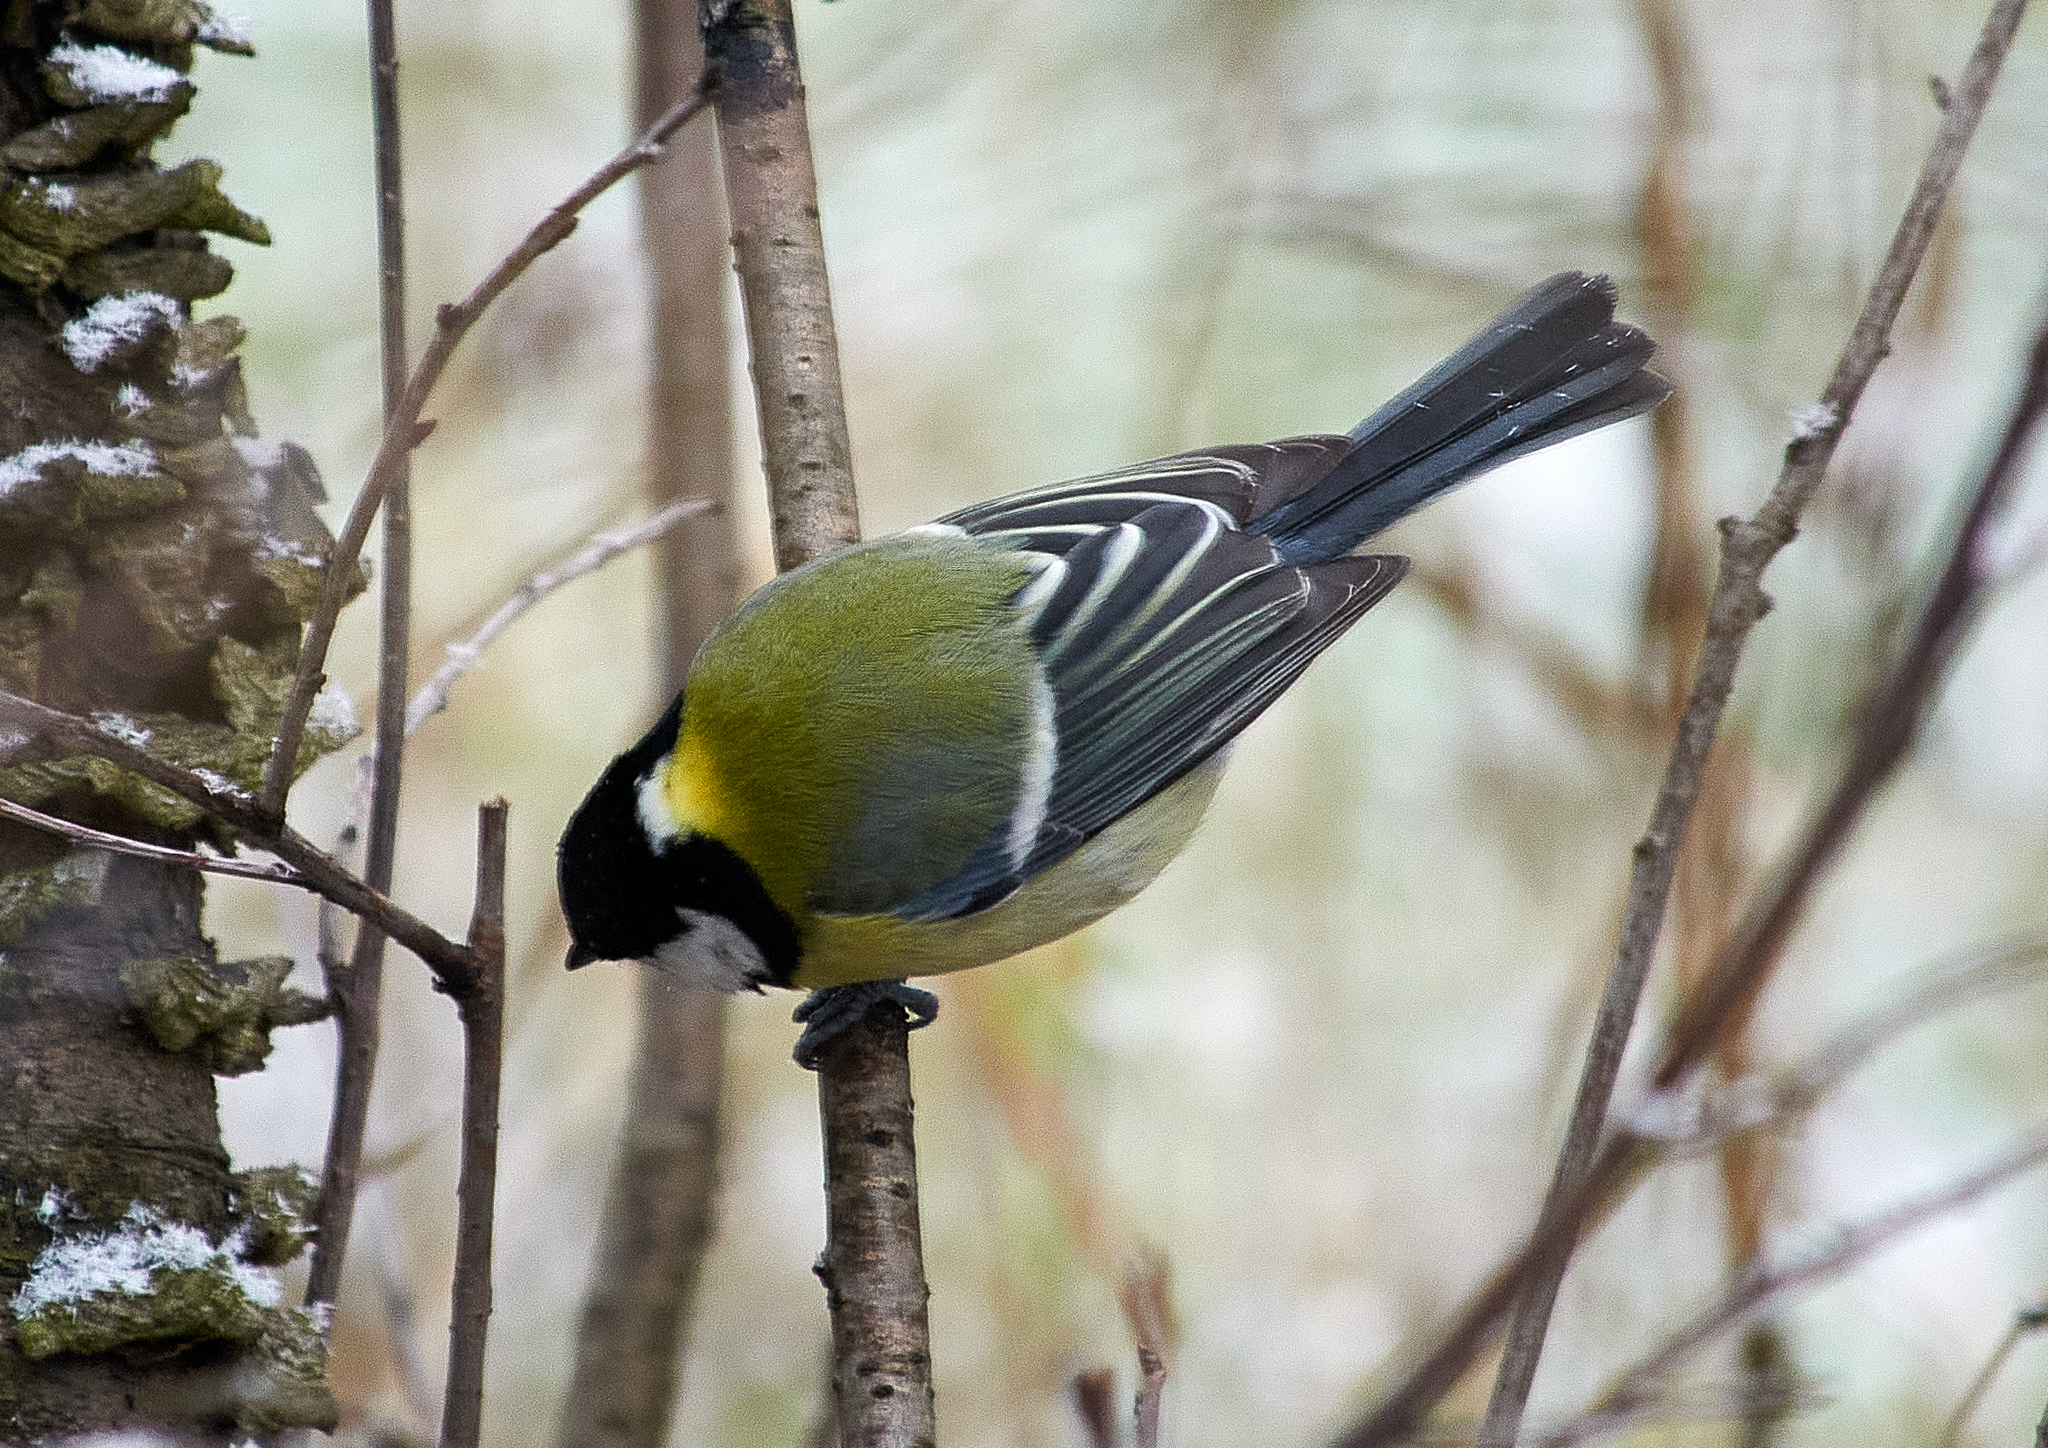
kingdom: Animalia
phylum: Chordata
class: Aves
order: Passeriformes
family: Paridae
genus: Parus
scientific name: Parus major
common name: Great tit
